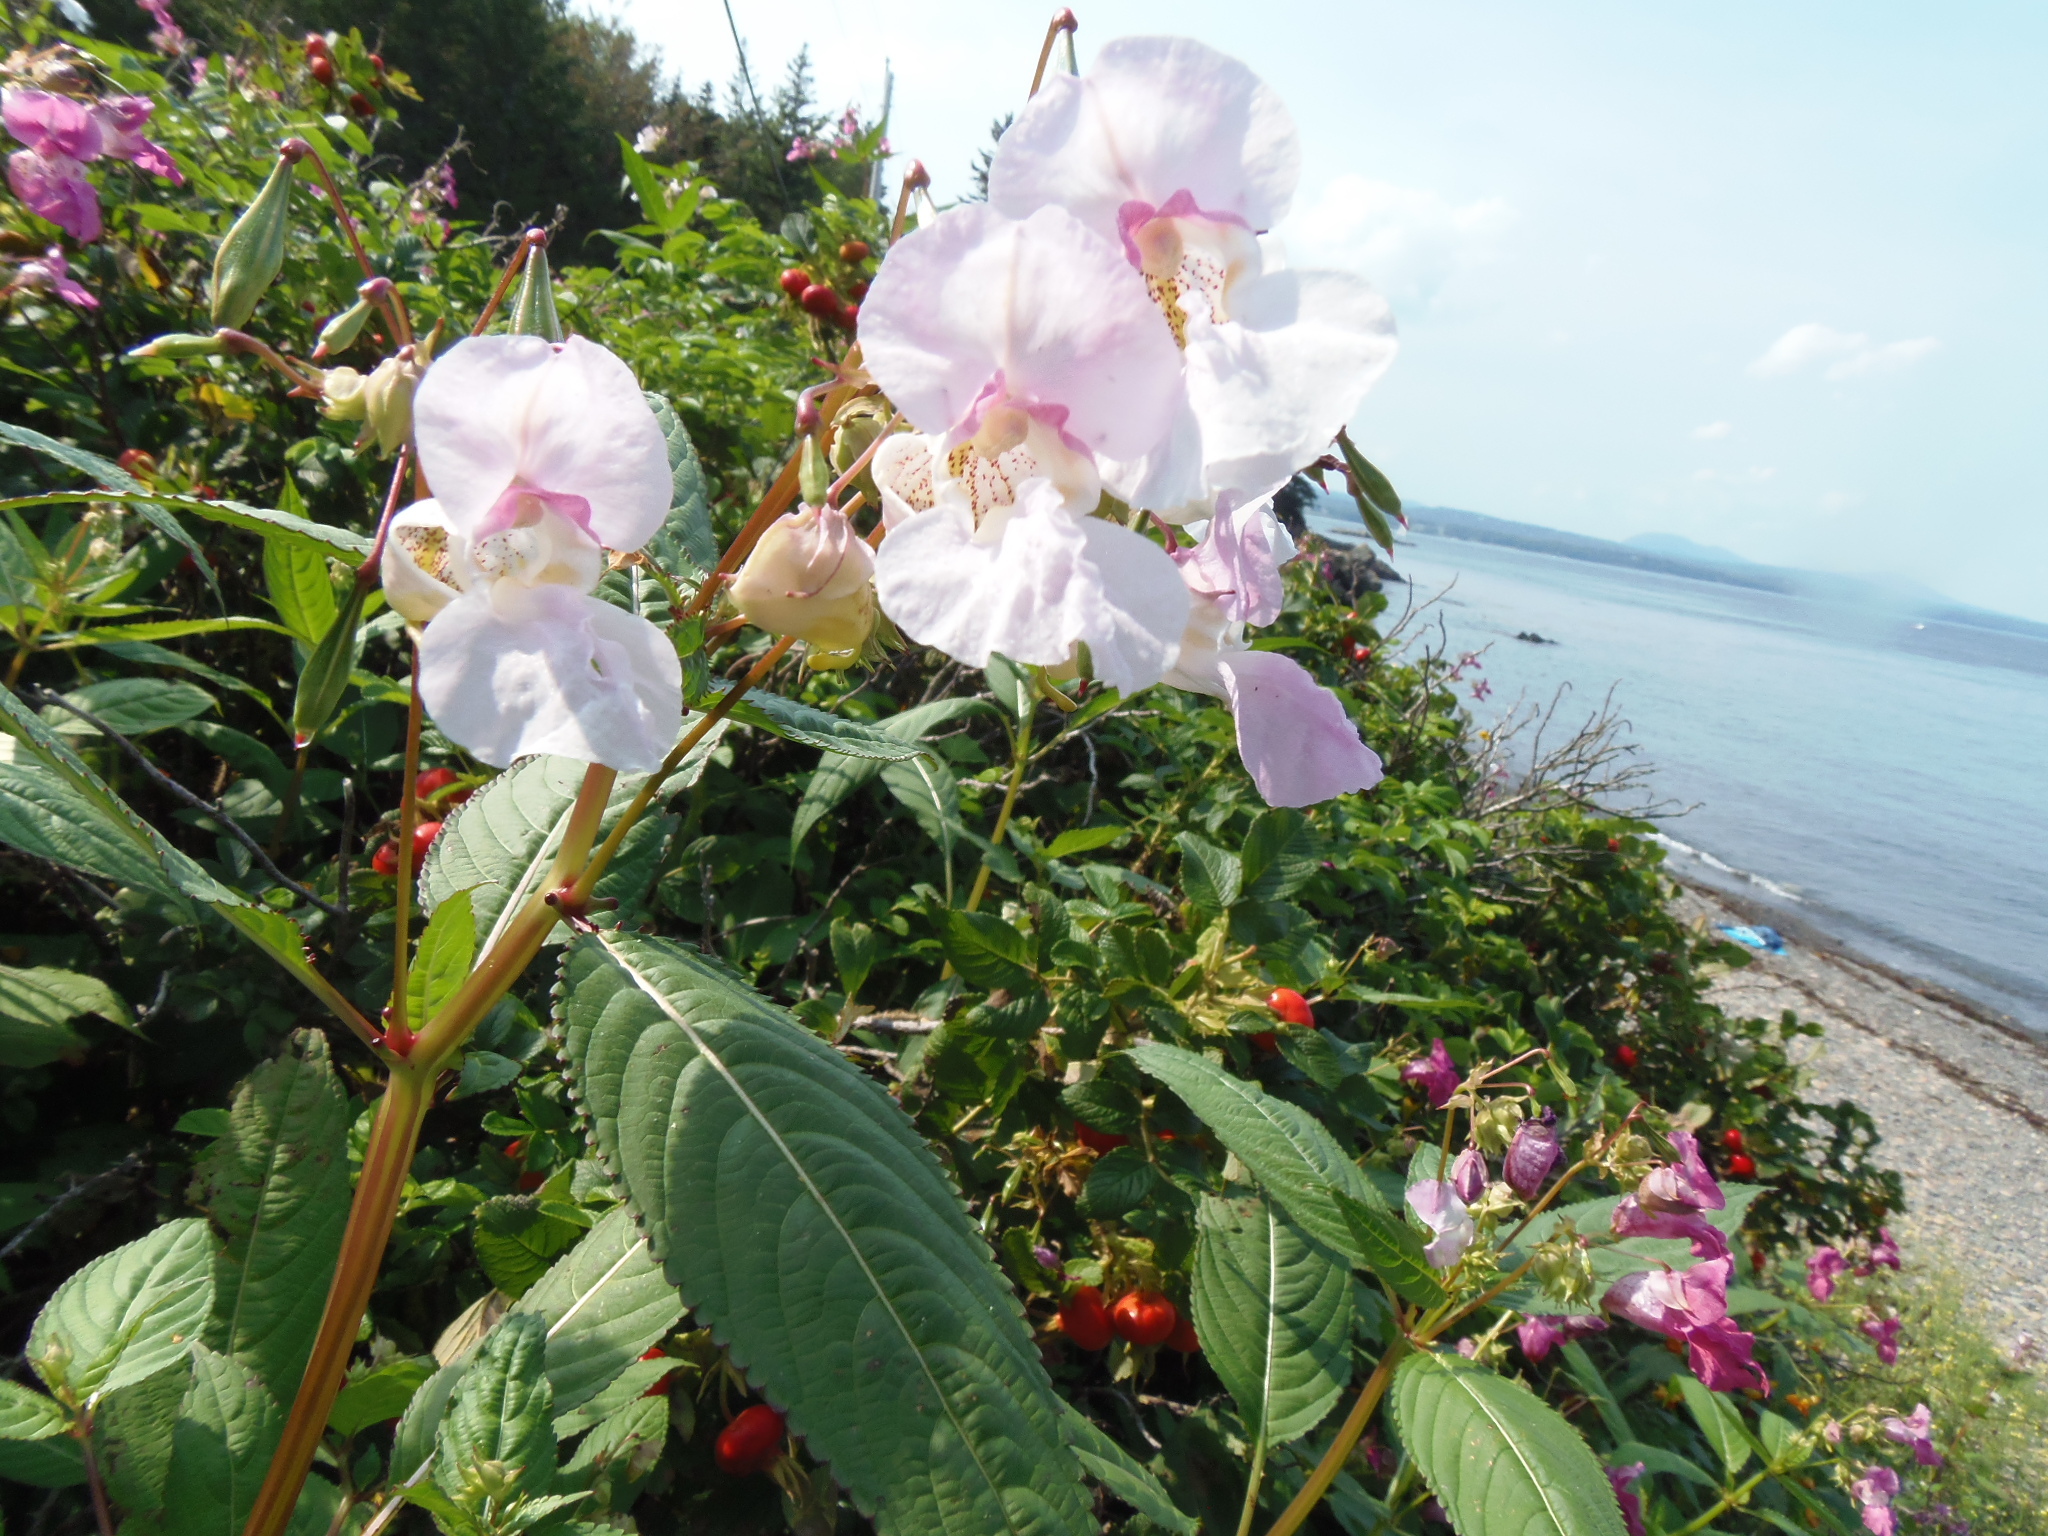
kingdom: Plantae
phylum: Tracheophyta
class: Magnoliopsida
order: Ericales
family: Balsaminaceae
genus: Impatiens
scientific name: Impatiens glandulifera
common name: Himalayan balsam
